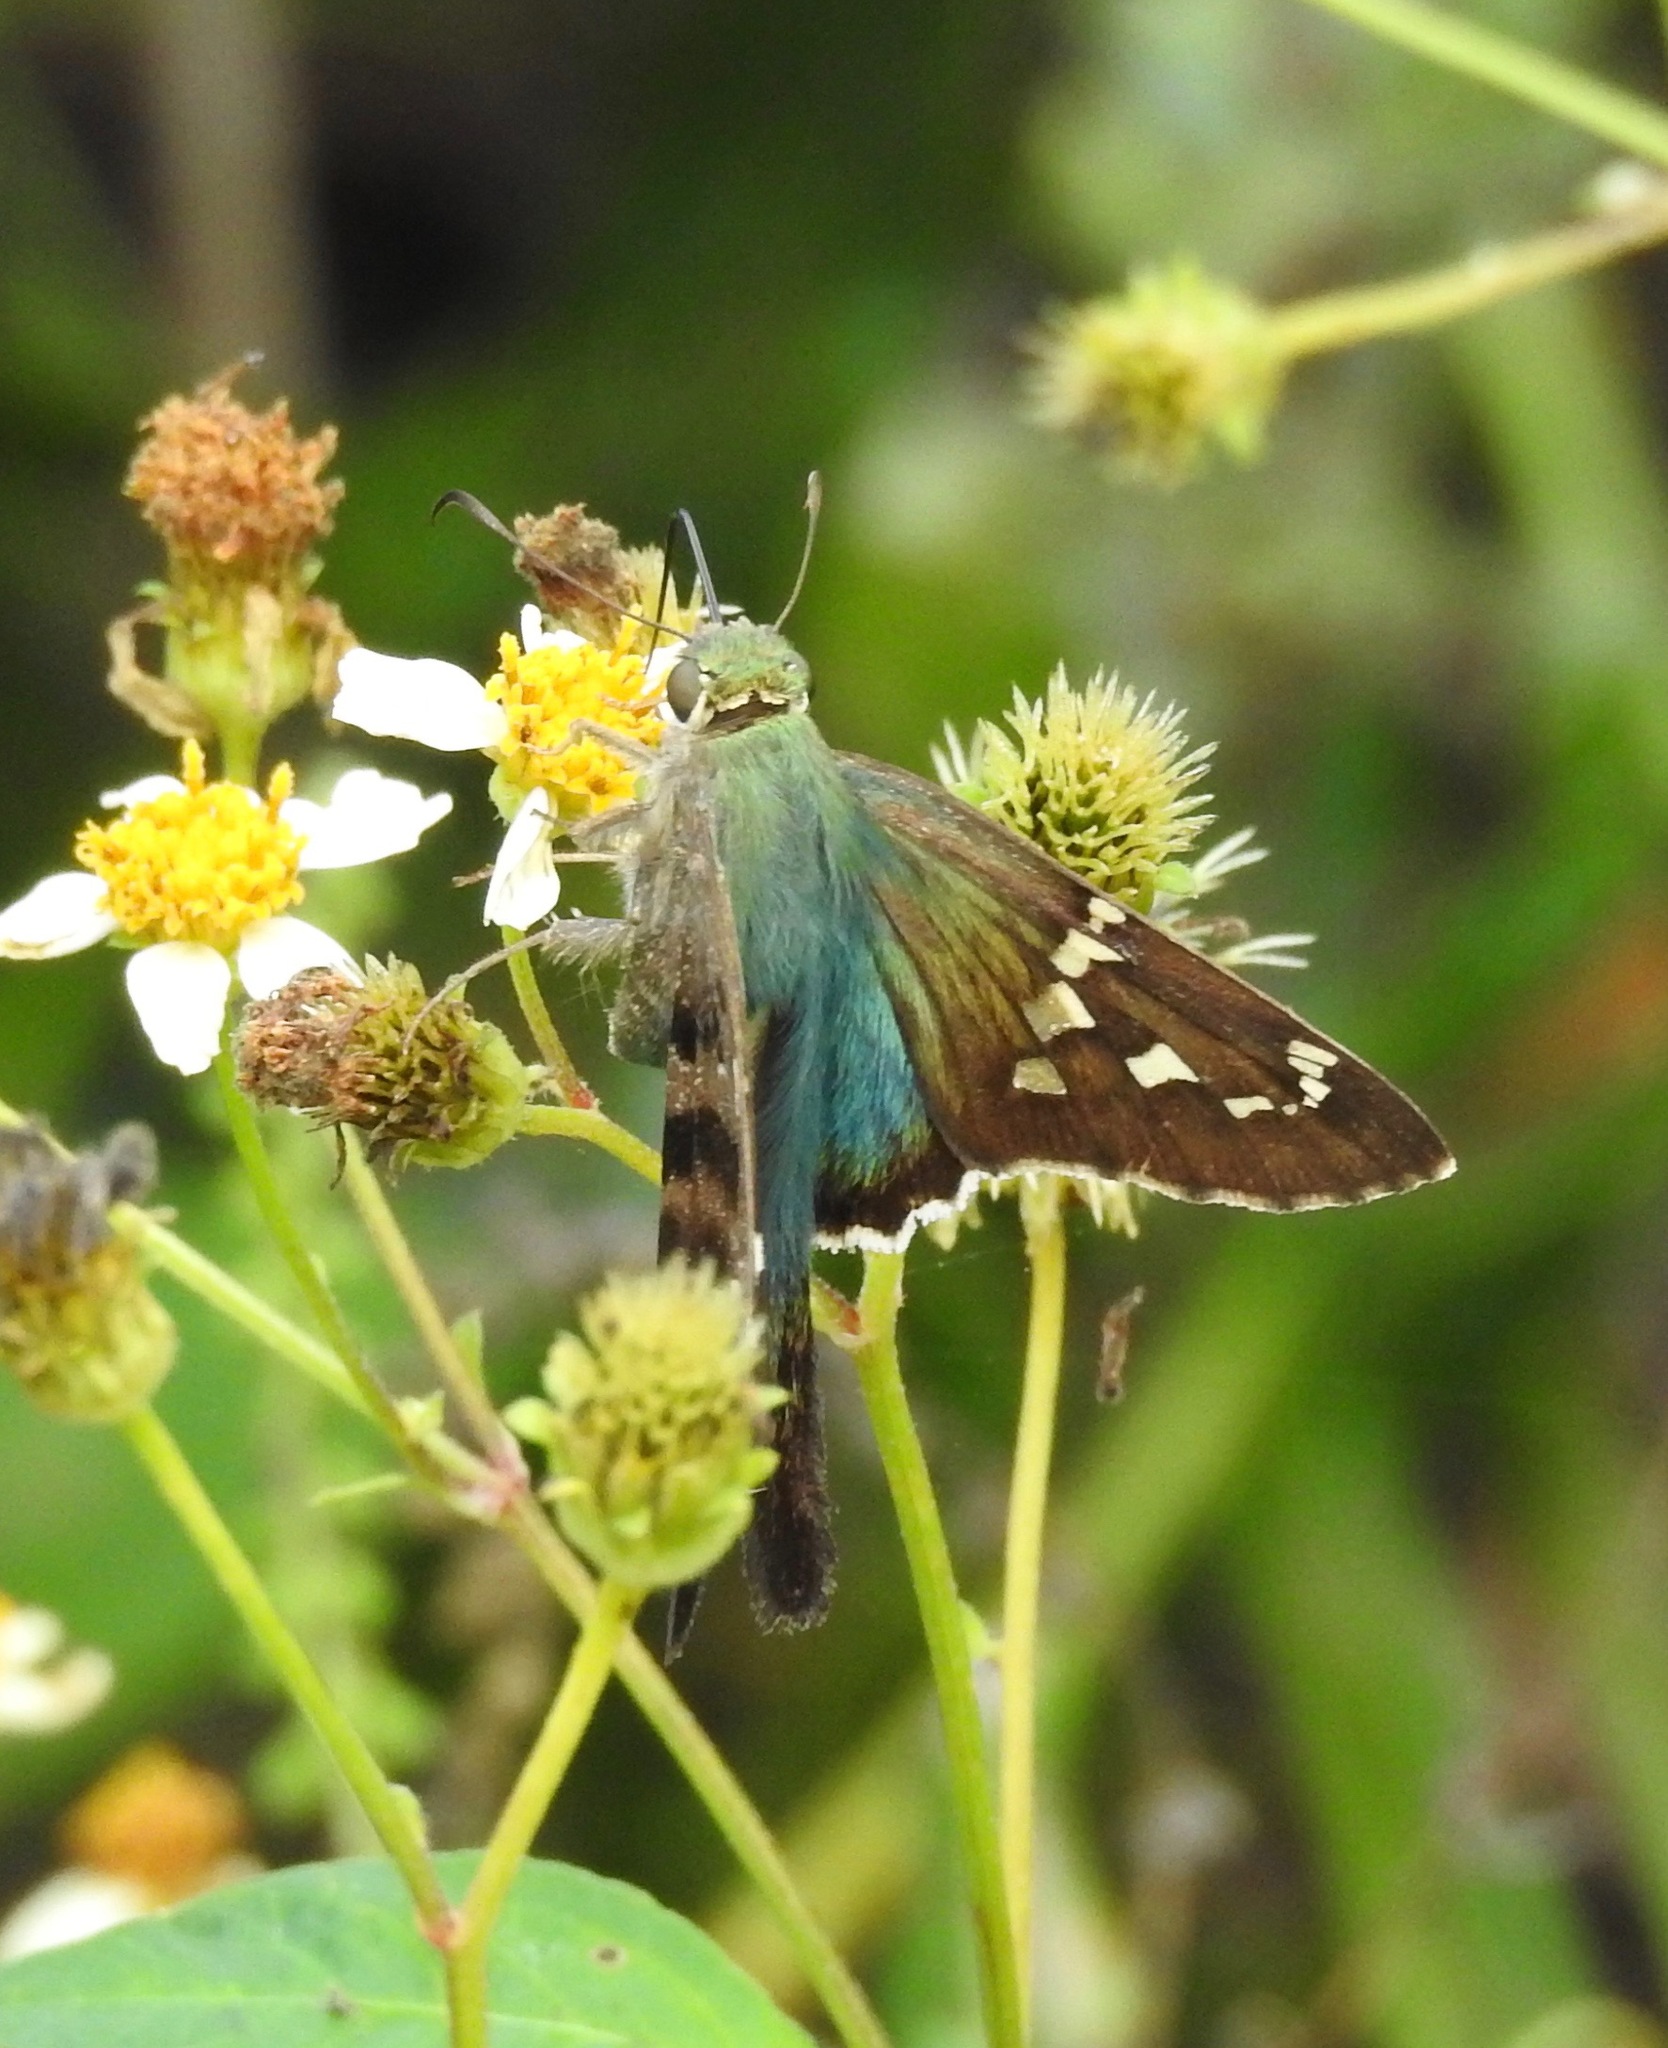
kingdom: Animalia
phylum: Arthropoda
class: Insecta
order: Lepidoptera
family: Hesperiidae
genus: Urbanus
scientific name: Urbanus proteus
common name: Long-tailed skipper
